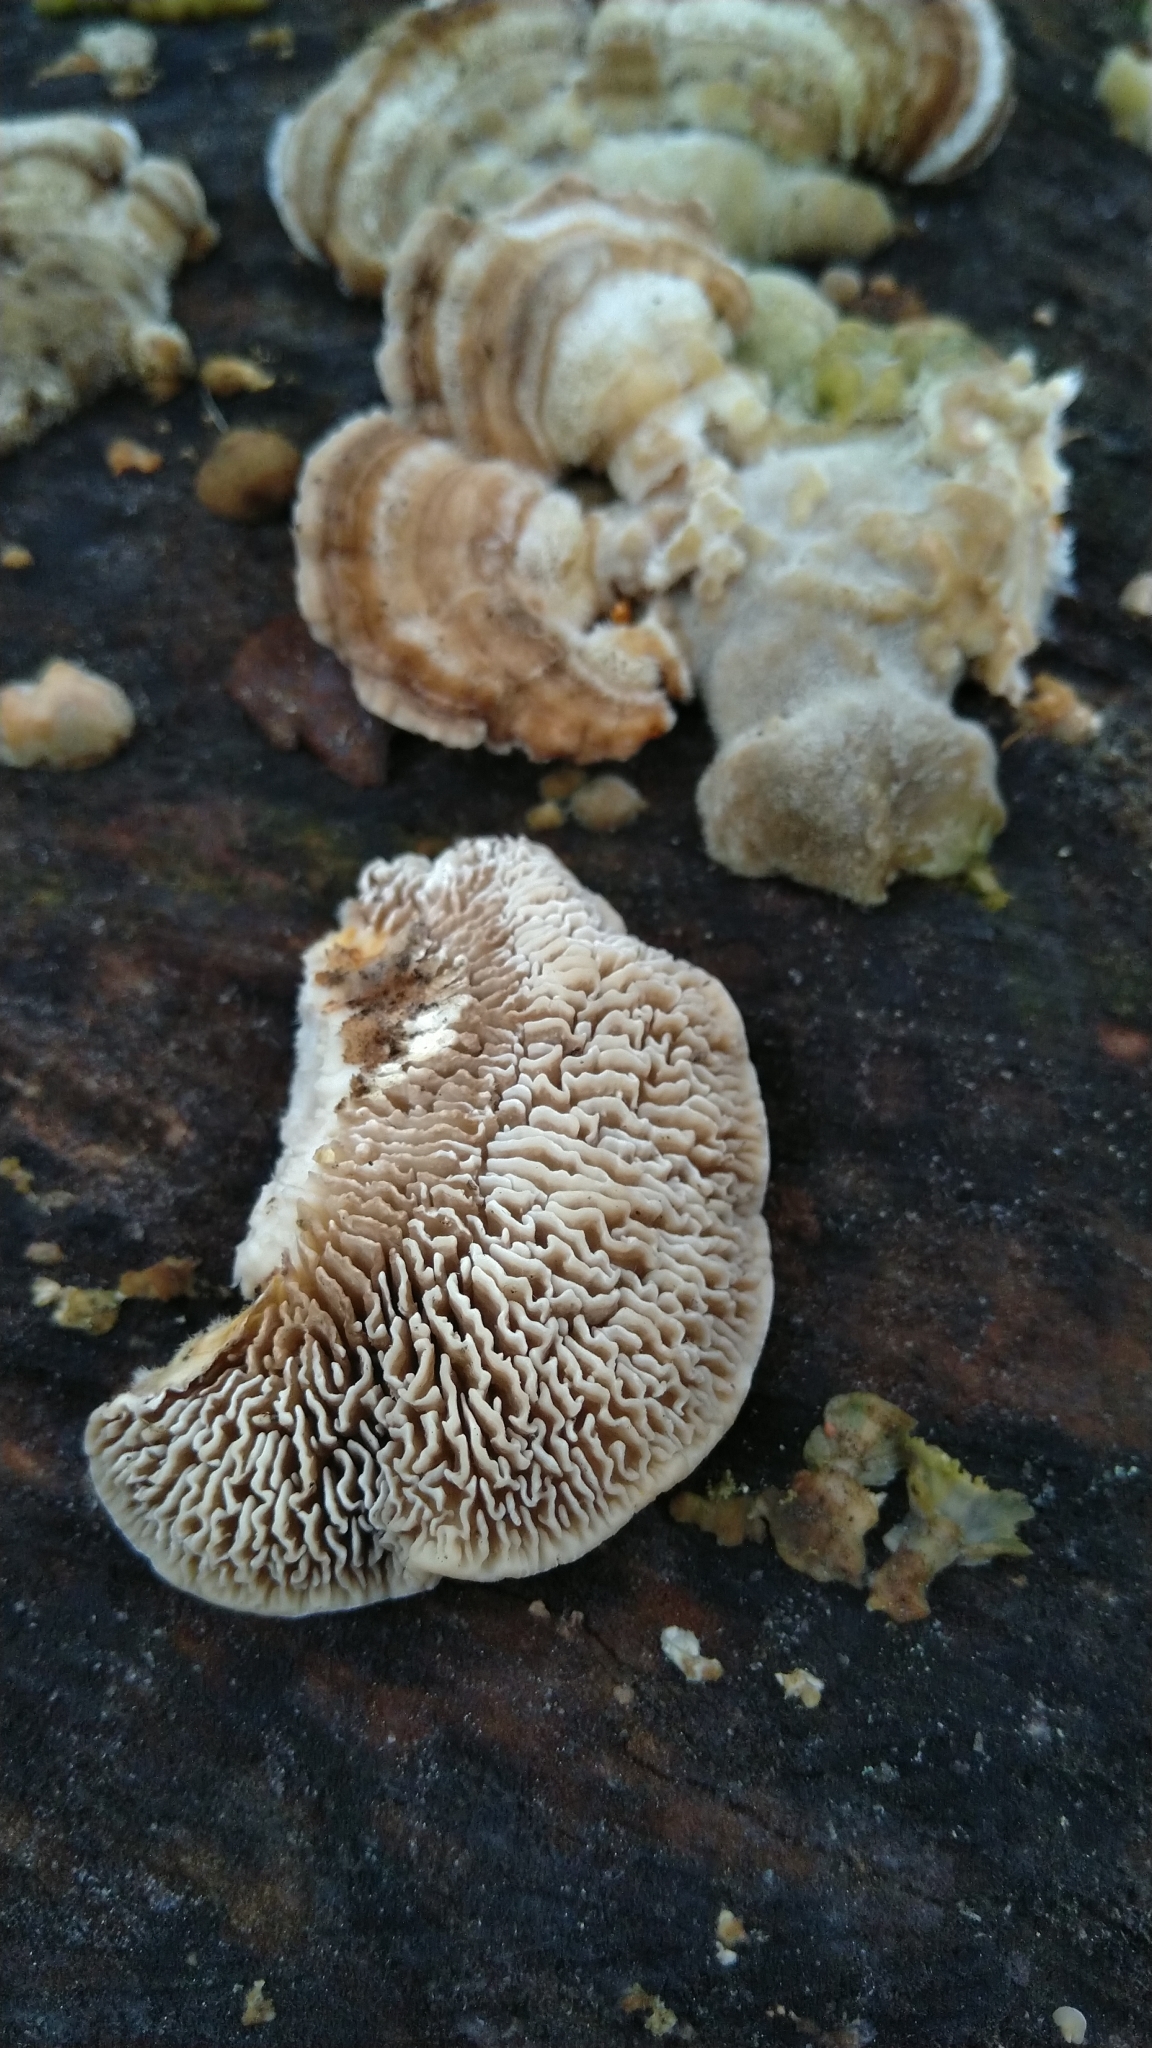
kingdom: Fungi
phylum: Basidiomycota
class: Agaricomycetes
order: Polyporales
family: Polyporaceae
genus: Lenzites
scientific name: Lenzites betulinus
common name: Birch mazegill
